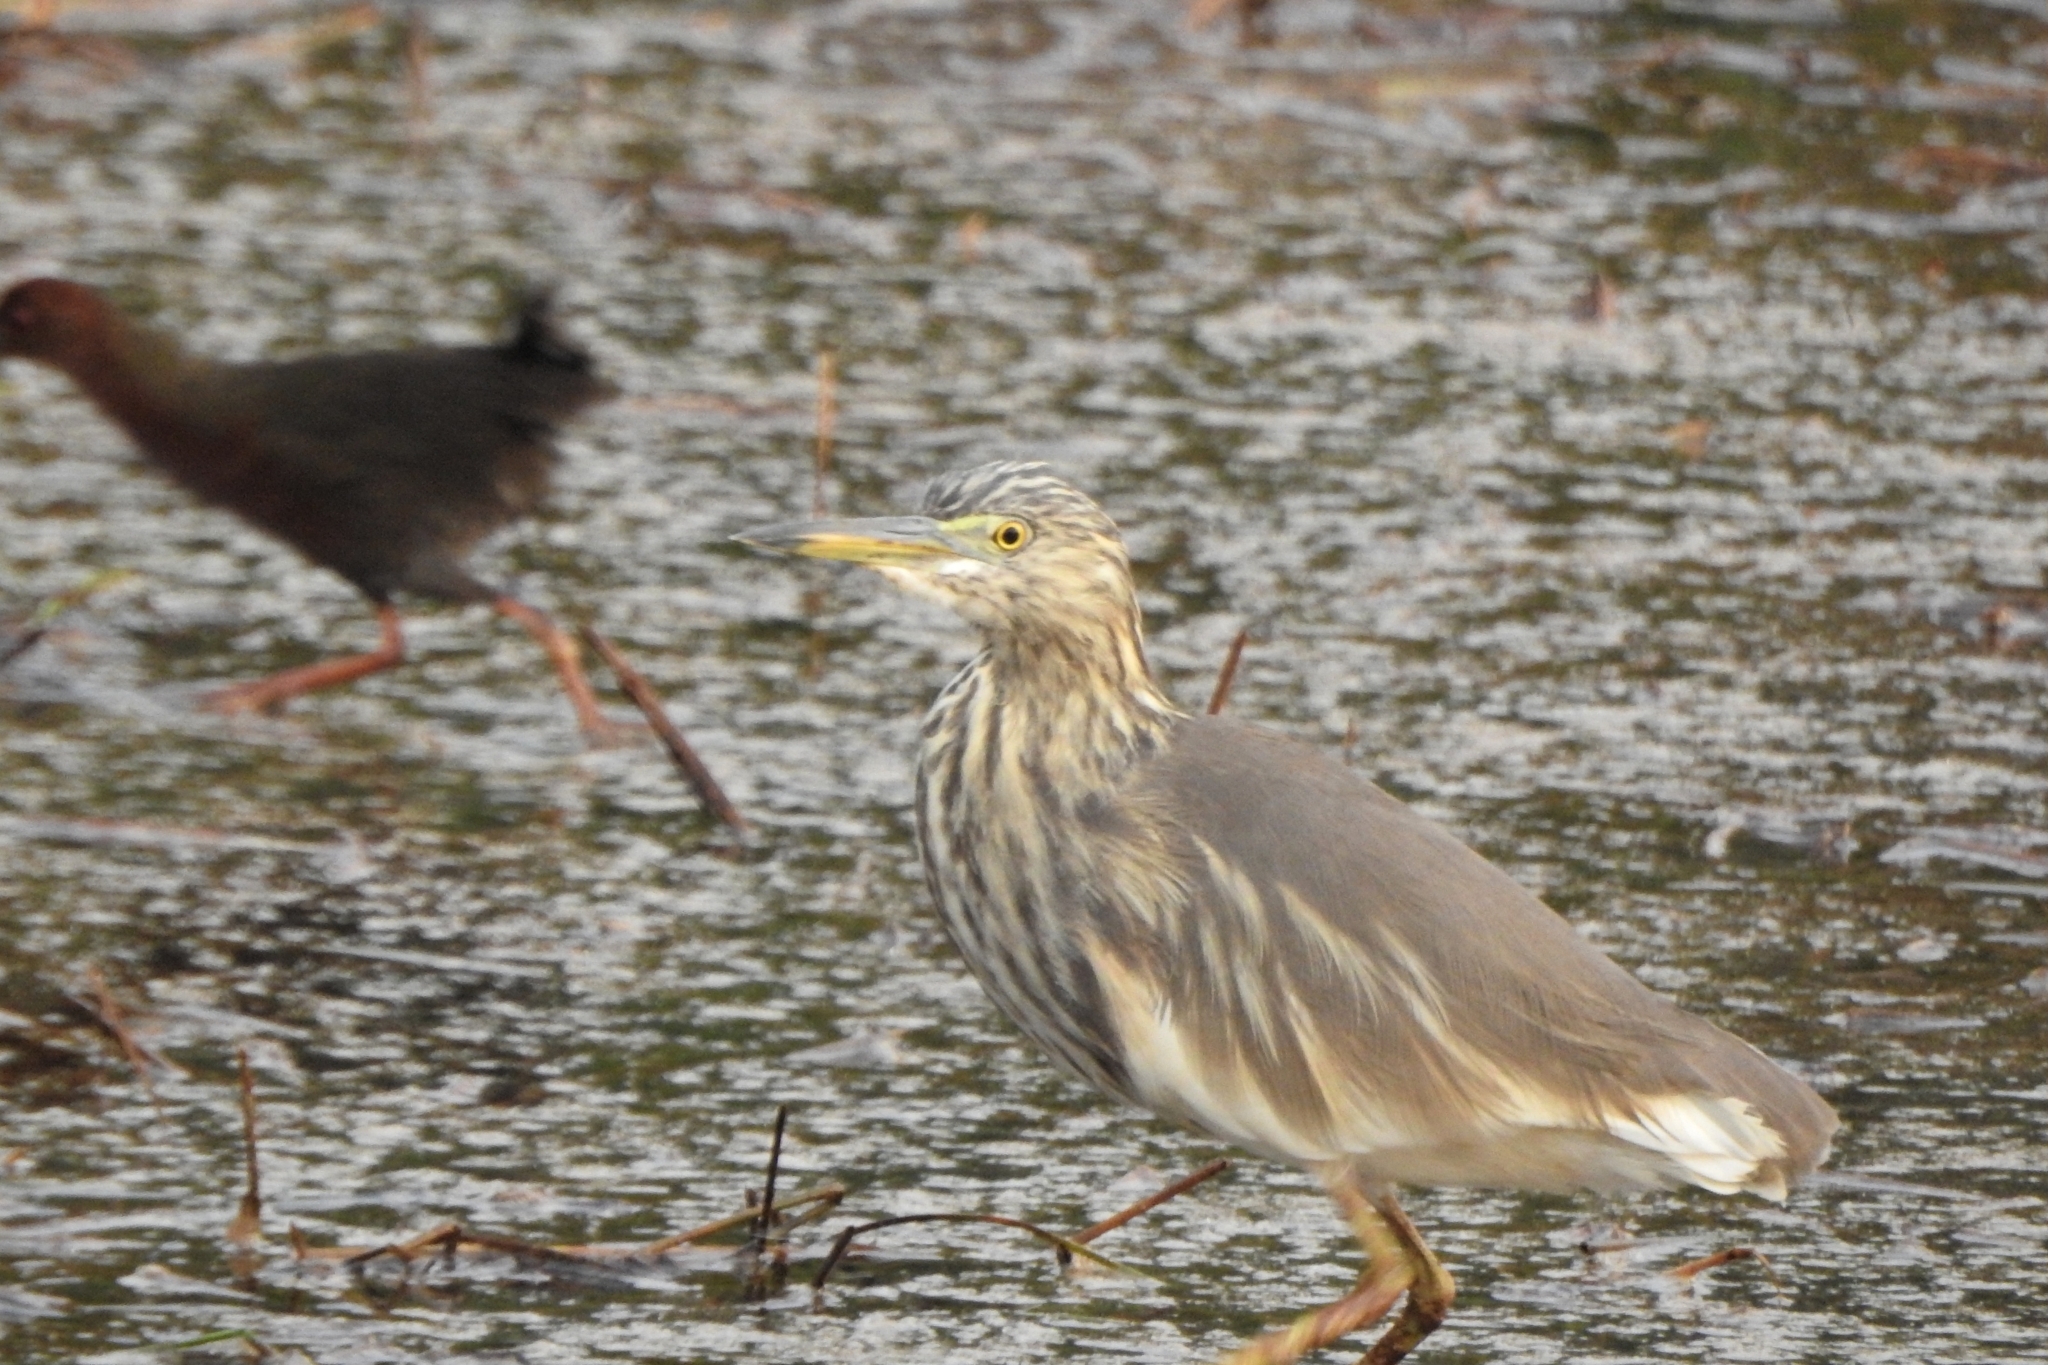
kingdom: Animalia
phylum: Chordata
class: Aves
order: Pelecaniformes
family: Ardeidae
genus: Ardeola
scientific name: Ardeola grayii
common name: Indian pond heron
